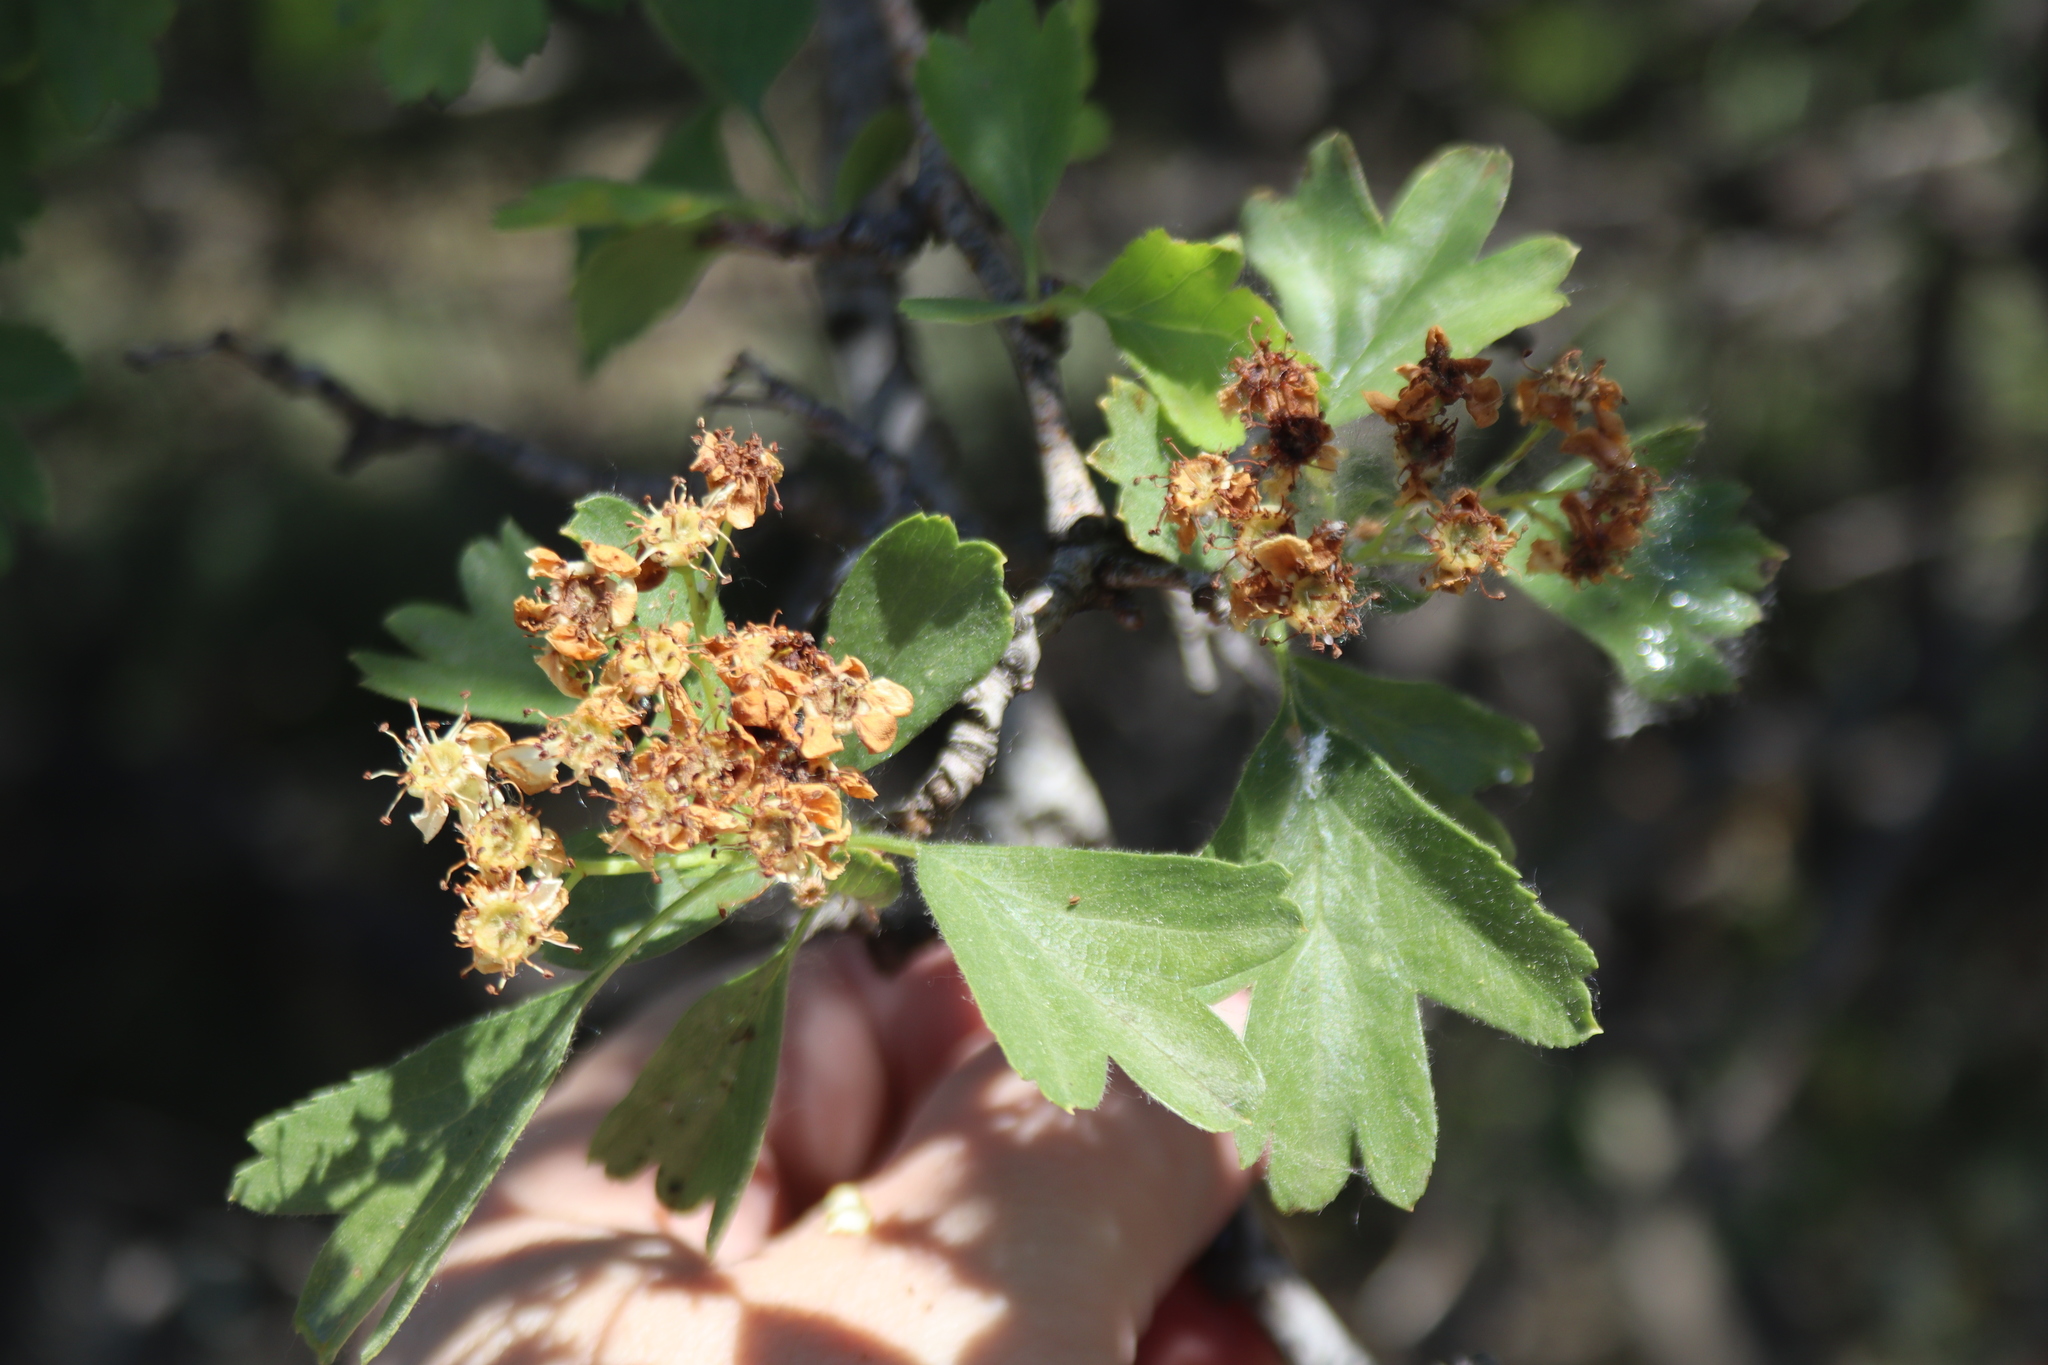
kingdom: Plantae
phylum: Tracheophyta
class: Magnoliopsida
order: Rosales
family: Rosaceae
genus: Crataegus
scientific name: Crataegus monogyna
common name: Hawthorn
